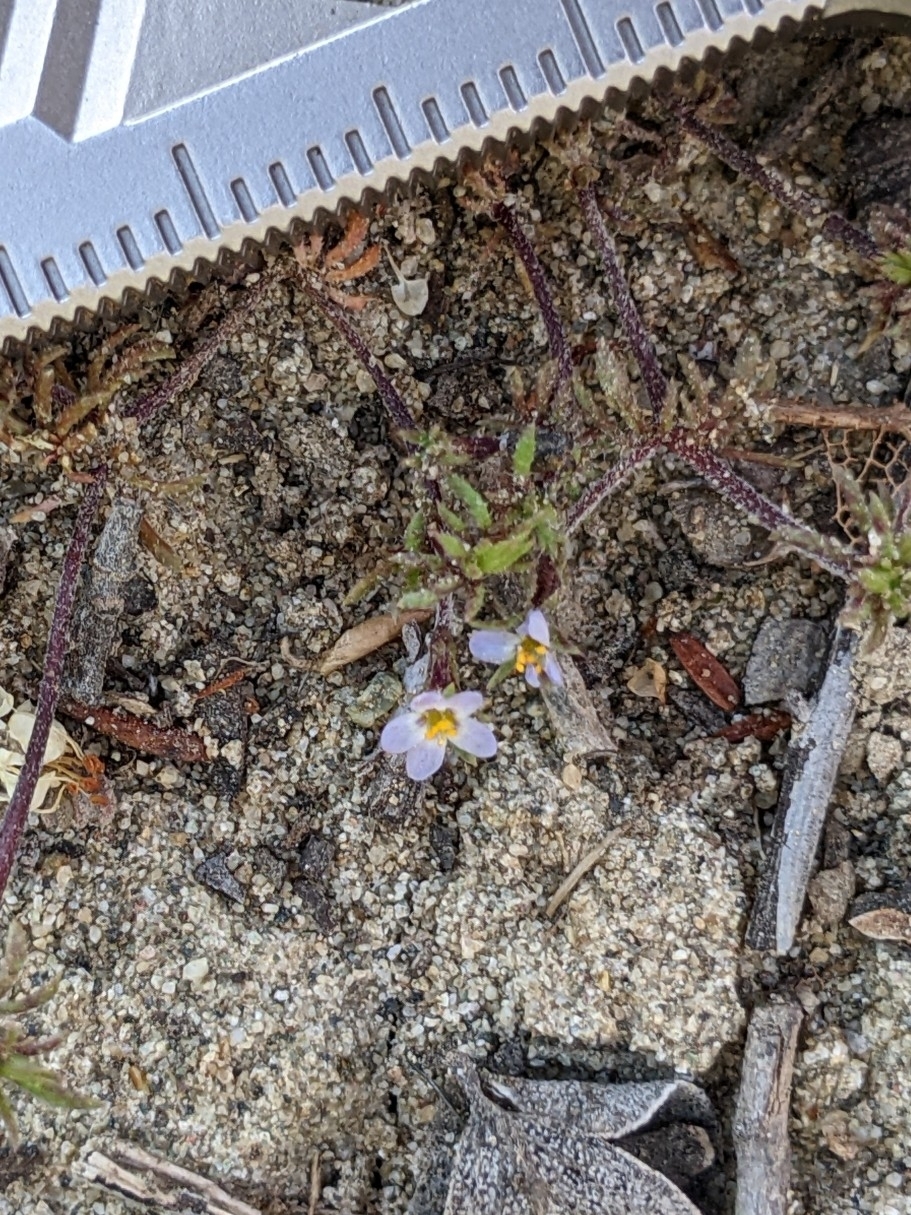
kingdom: Plantae
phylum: Tracheophyta
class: Magnoliopsida
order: Ericales
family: Polemoniaceae
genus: Leptosiphon
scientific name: Leptosiphon pygmaeus
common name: Pygmy linanthus
